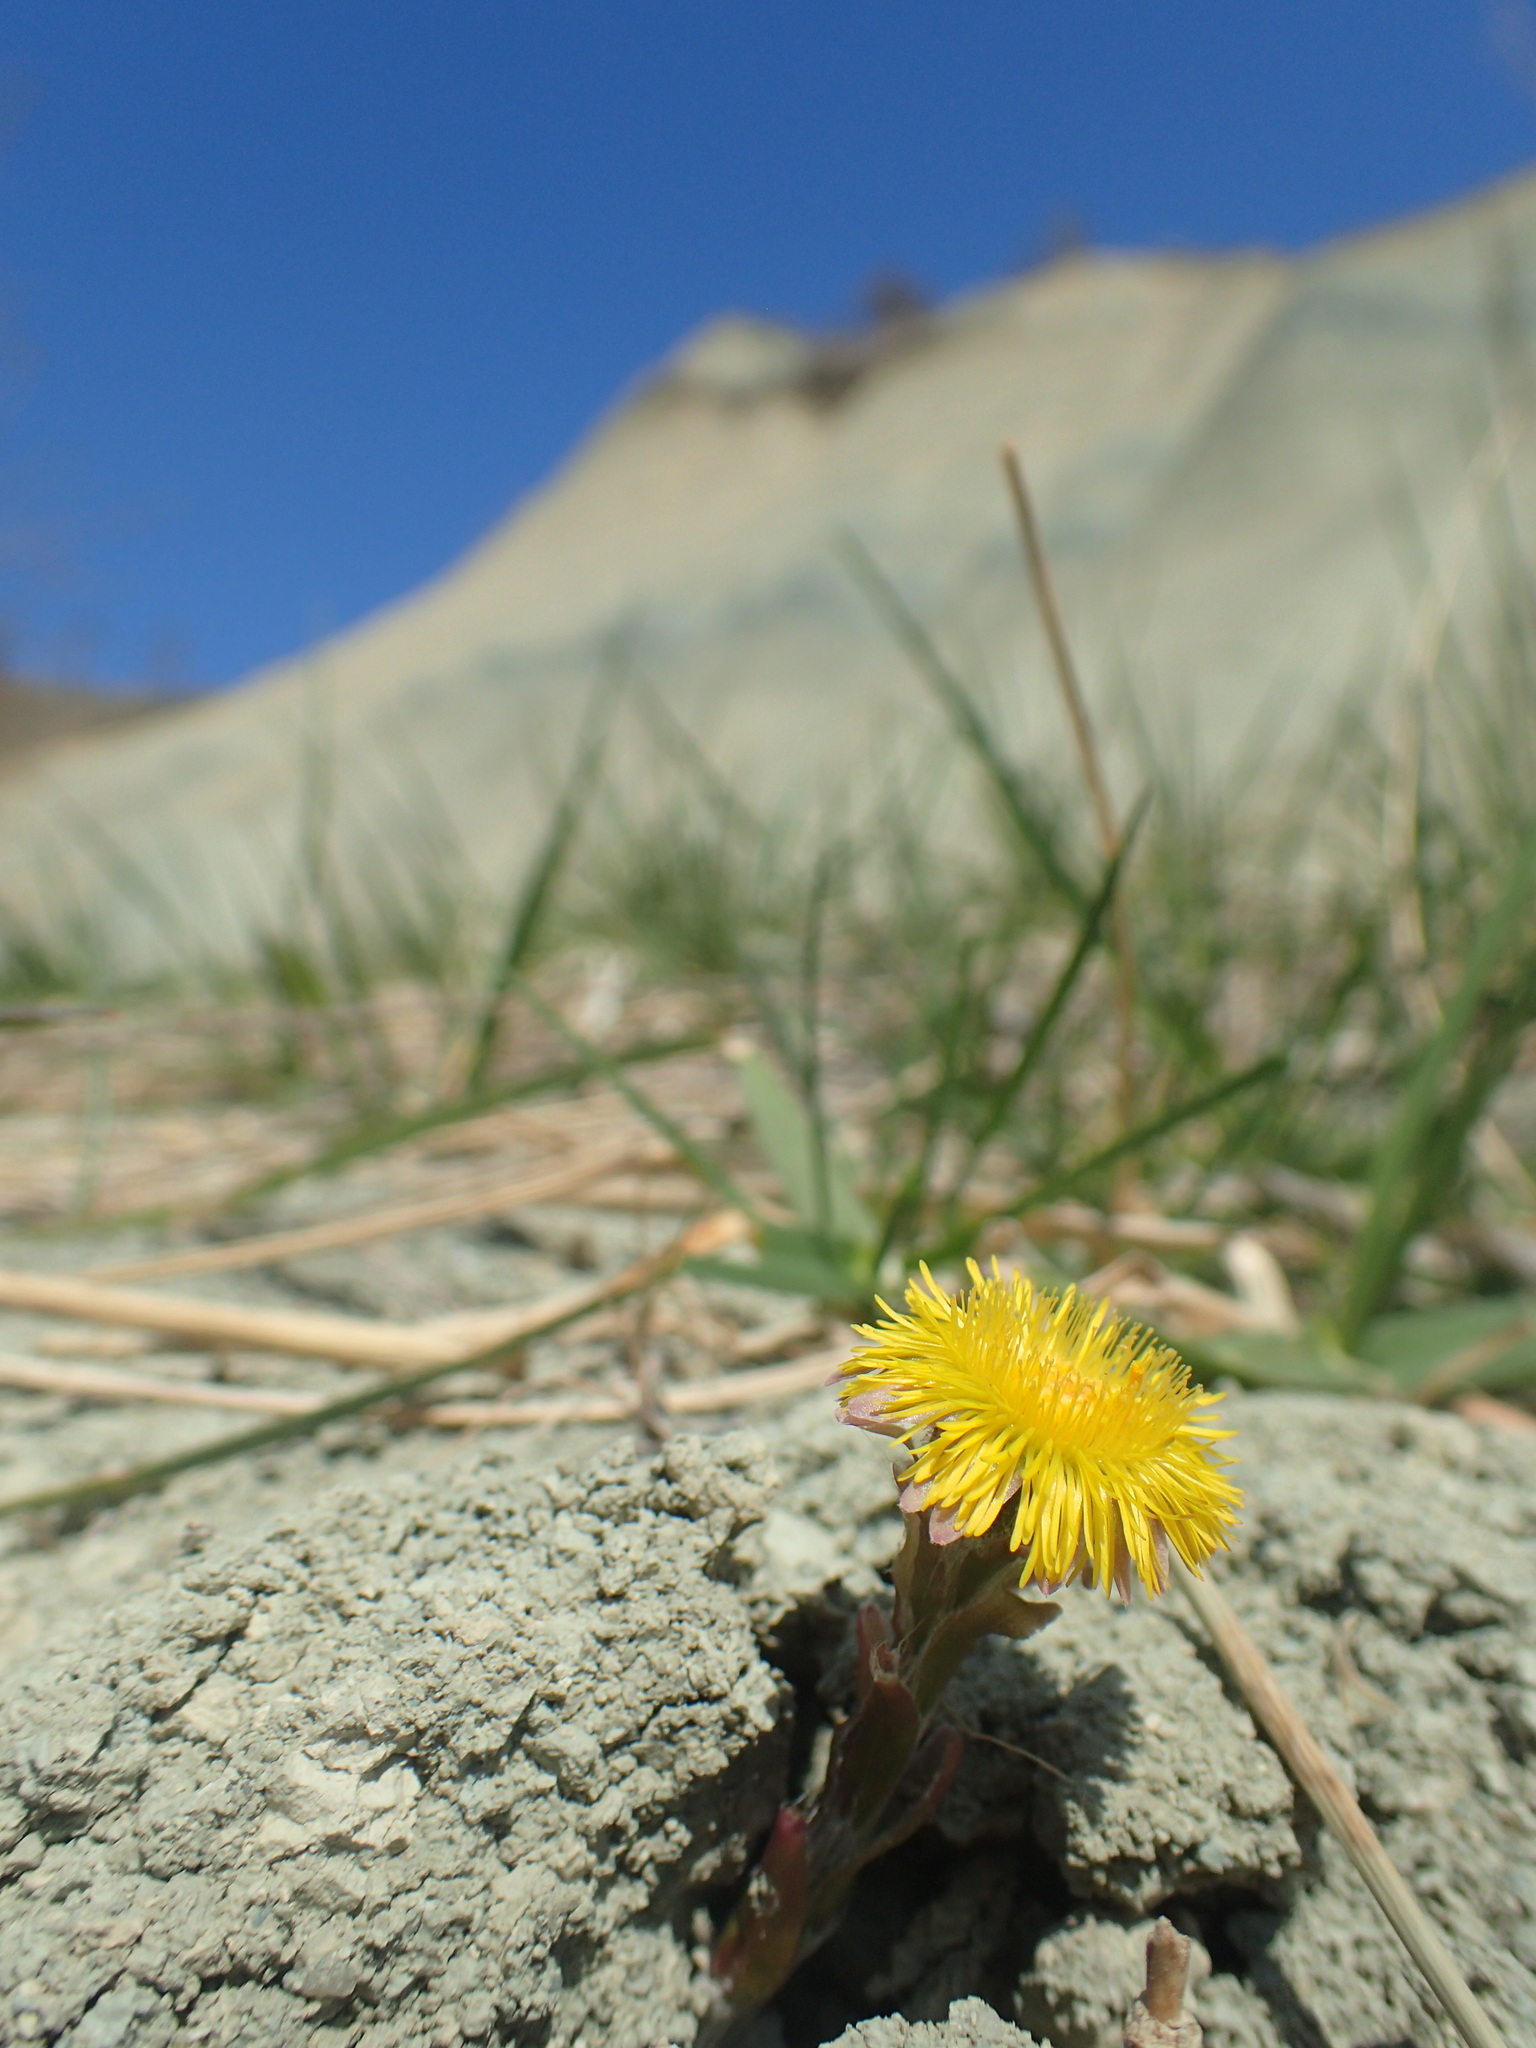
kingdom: Plantae
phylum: Tracheophyta
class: Magnoliopsida
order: Asterales
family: Asteraceae
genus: Tussilago
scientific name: Tussilago farfara
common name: Coltsfoot
